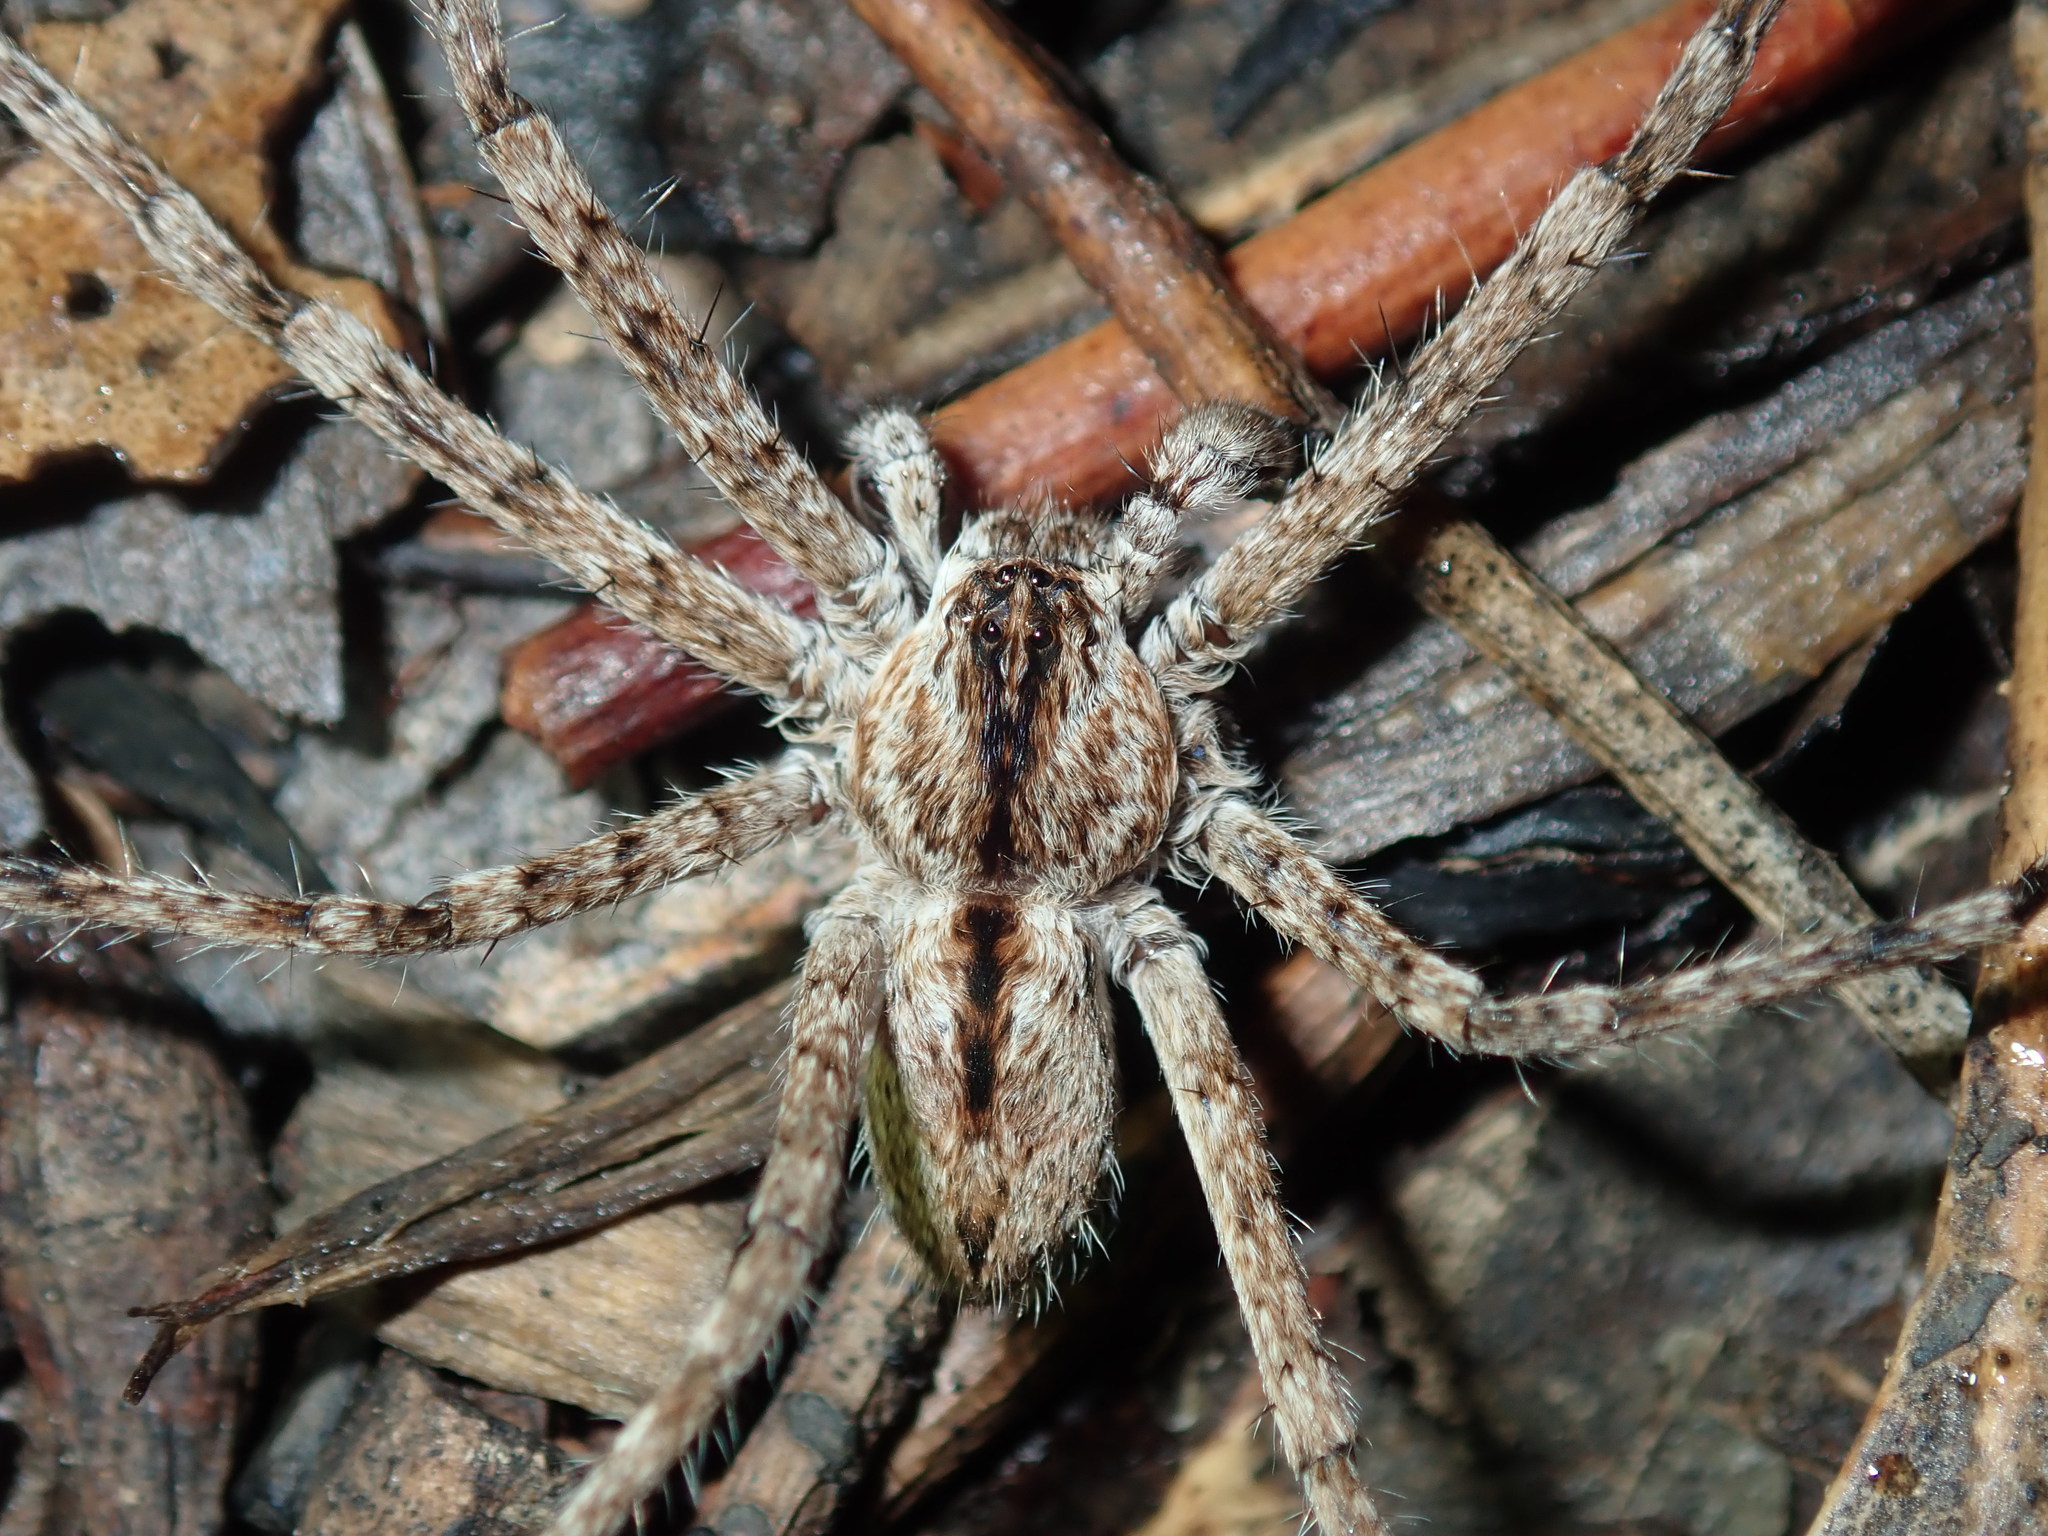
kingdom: Animalia
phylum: Arthropoda
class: Arachnida
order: Araneae
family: Sparassidae
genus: Pediana
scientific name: Pediana regina
